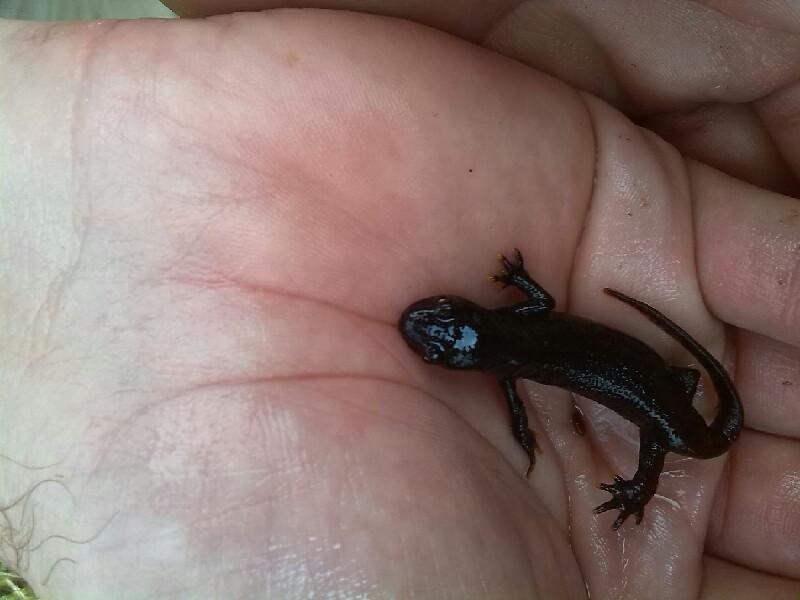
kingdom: Animalia
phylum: Chordata
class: Amphibia
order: Caudata
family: Salamandridae
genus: Ichthyosaura
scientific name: Ichthyosaura alpestris
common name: Alpine newt
